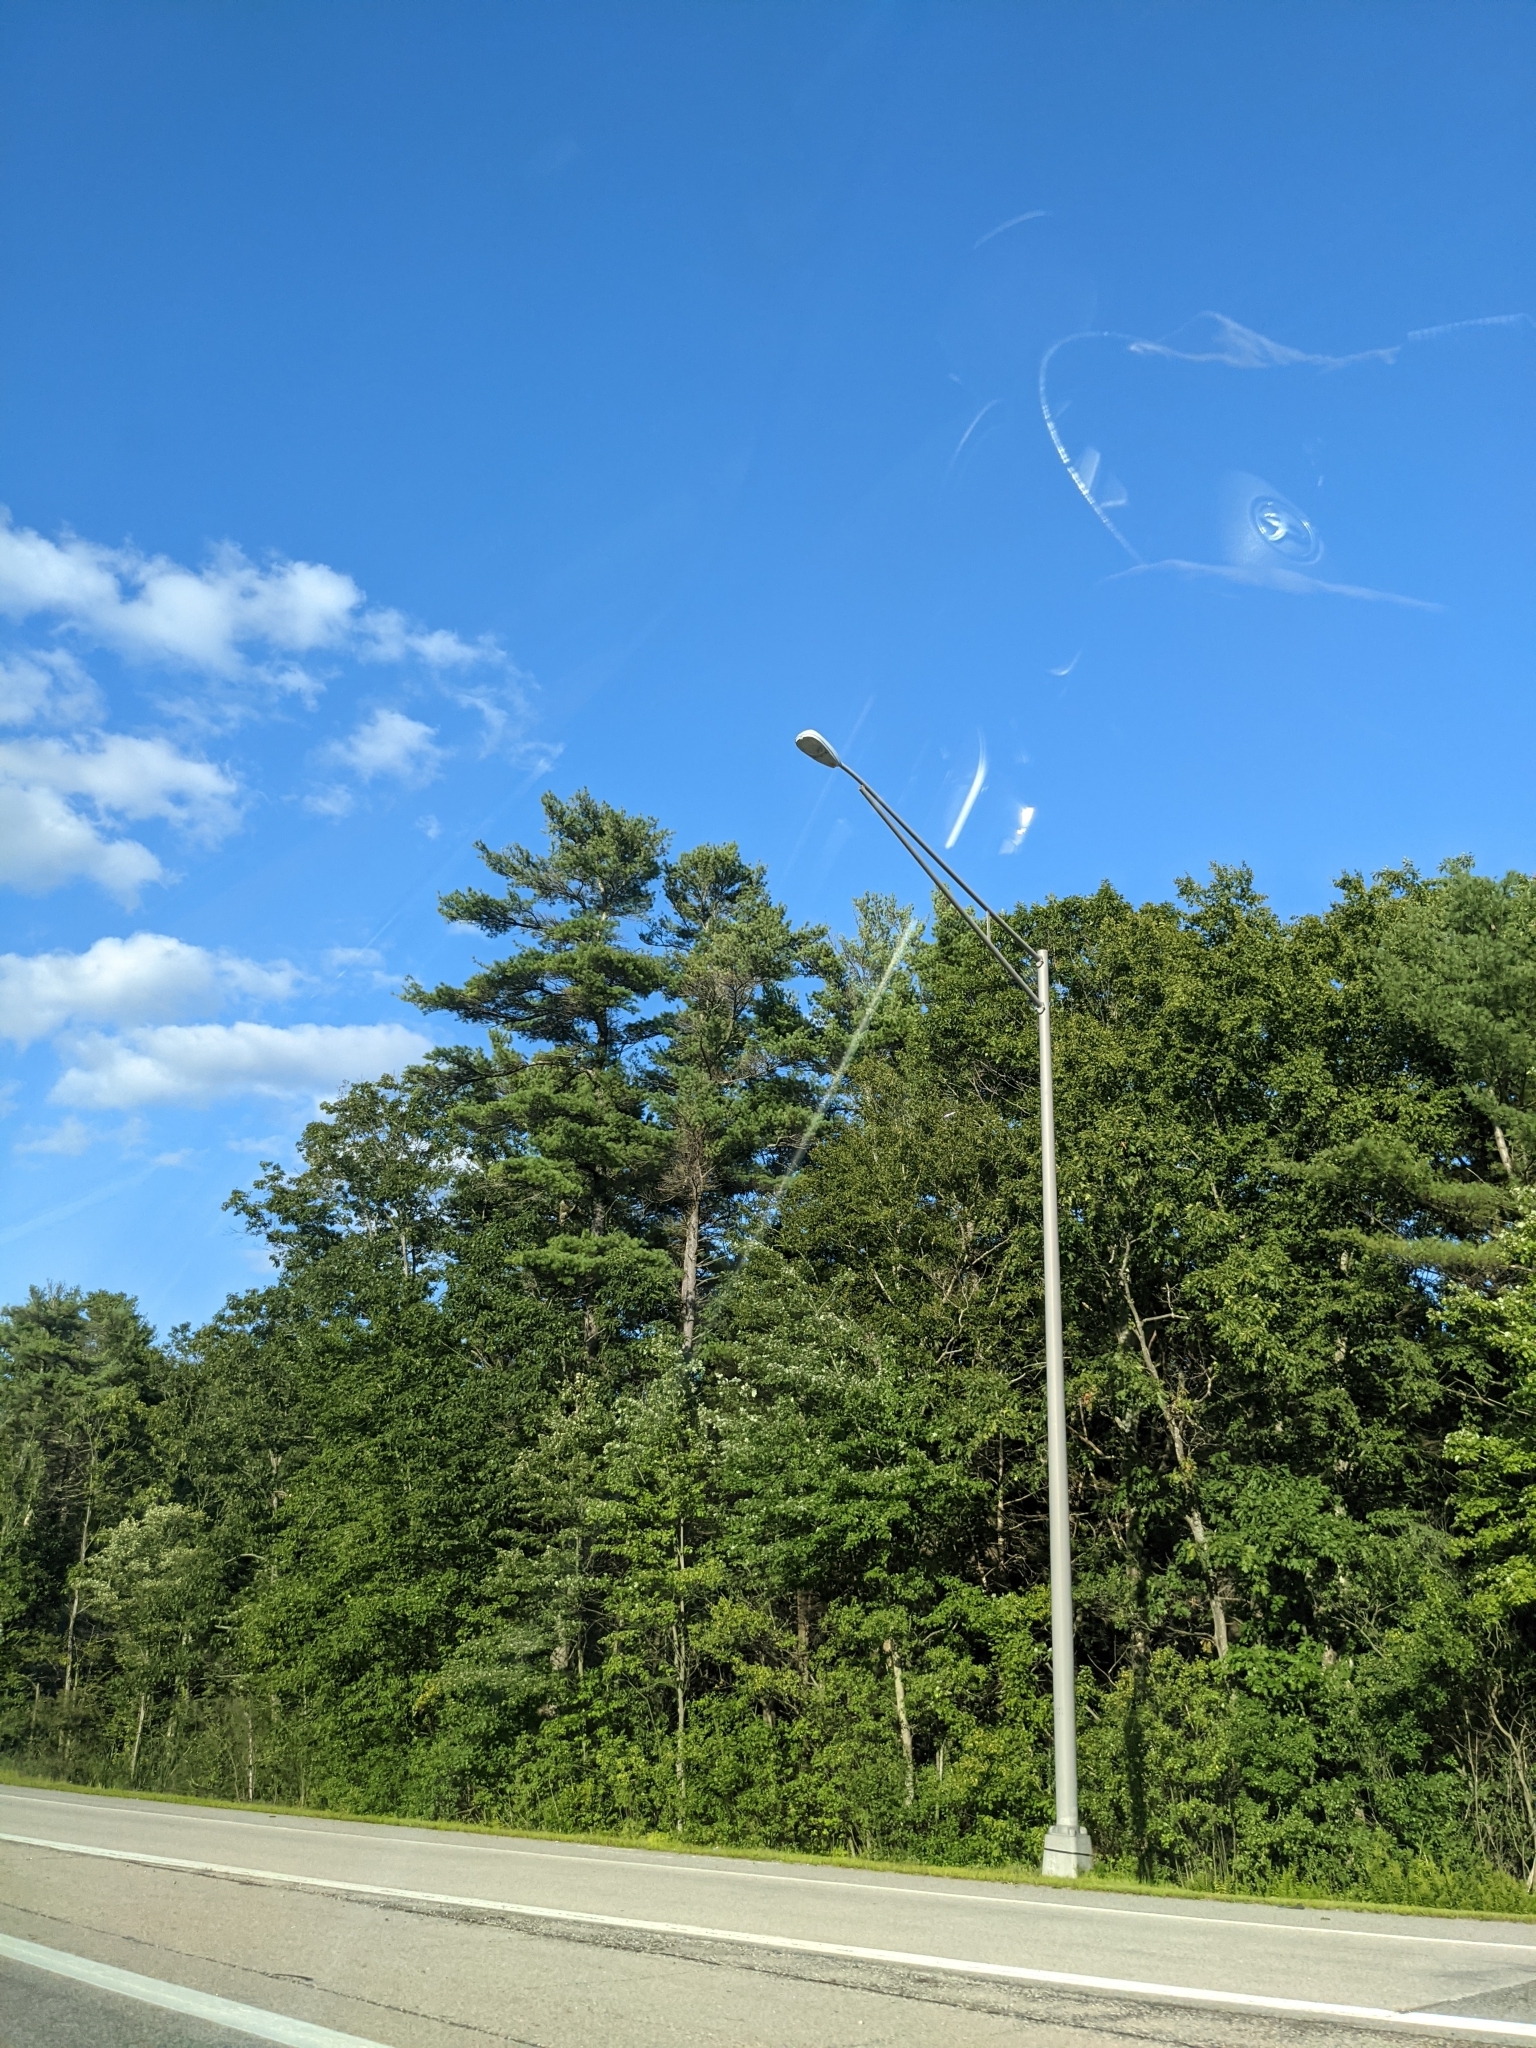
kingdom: Plantae
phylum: Tracheophyta
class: Pinopsida
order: Pinales
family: Pinaceae
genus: Pinus
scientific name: Pinus strobus
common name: Weymouth pine
